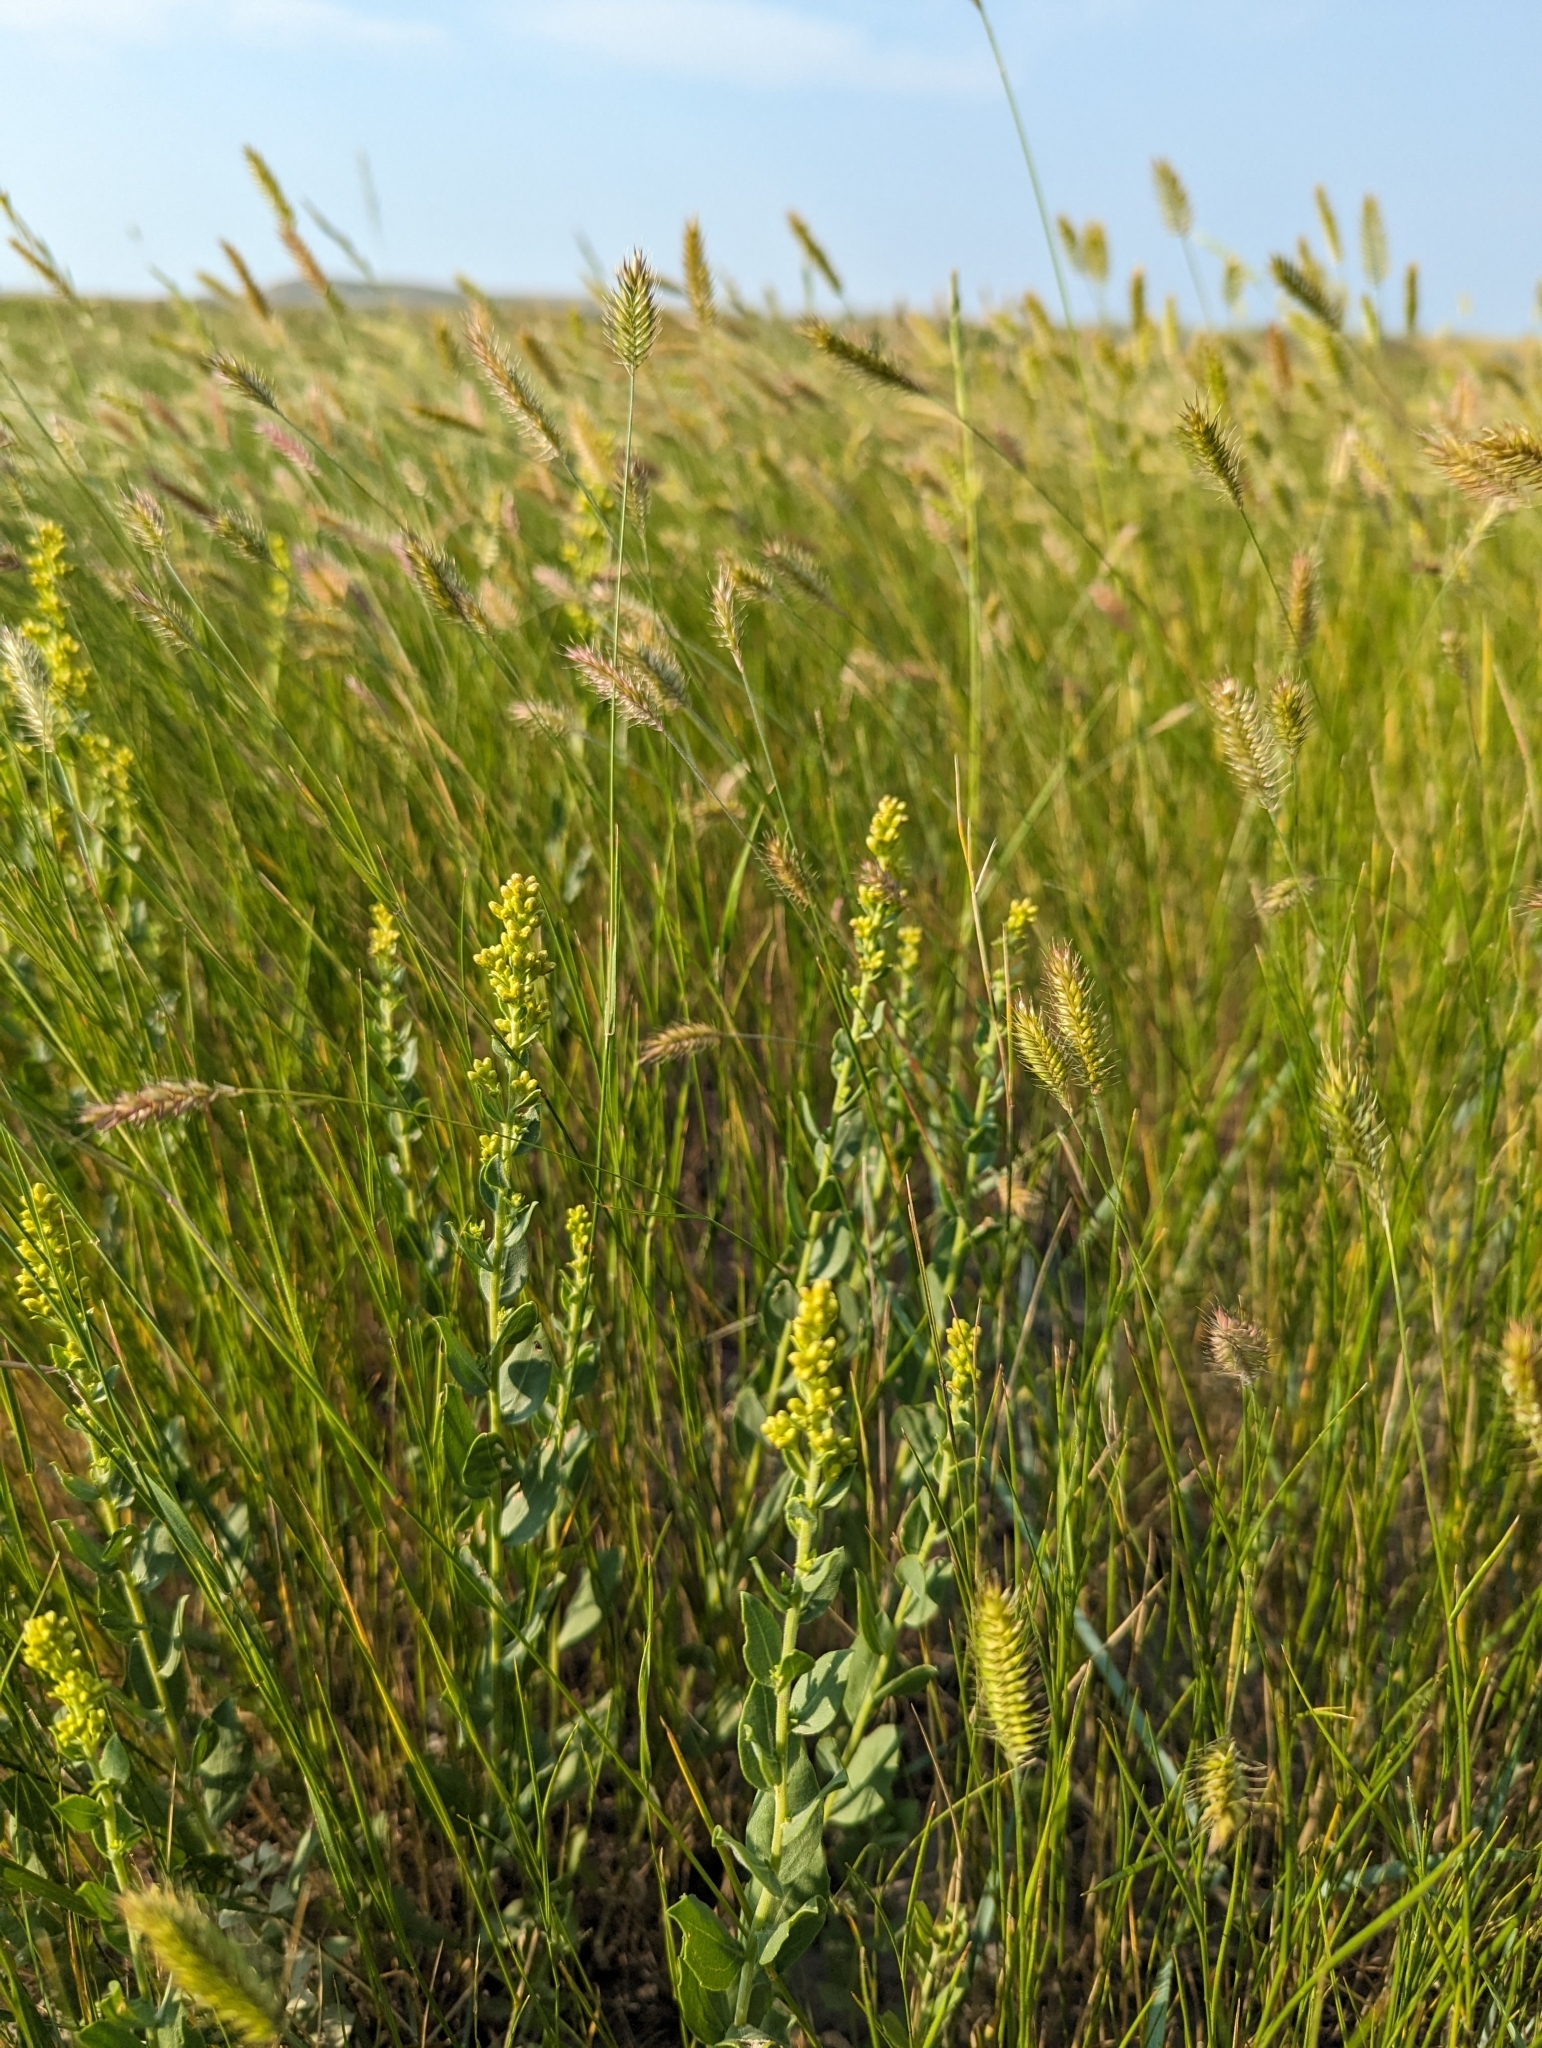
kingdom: Plantae
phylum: Tracheophyta
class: Magnoliopsida
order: Asterales
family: Asteraceae
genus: Solidago
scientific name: Solidago mollis
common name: Ashly goldenrod
